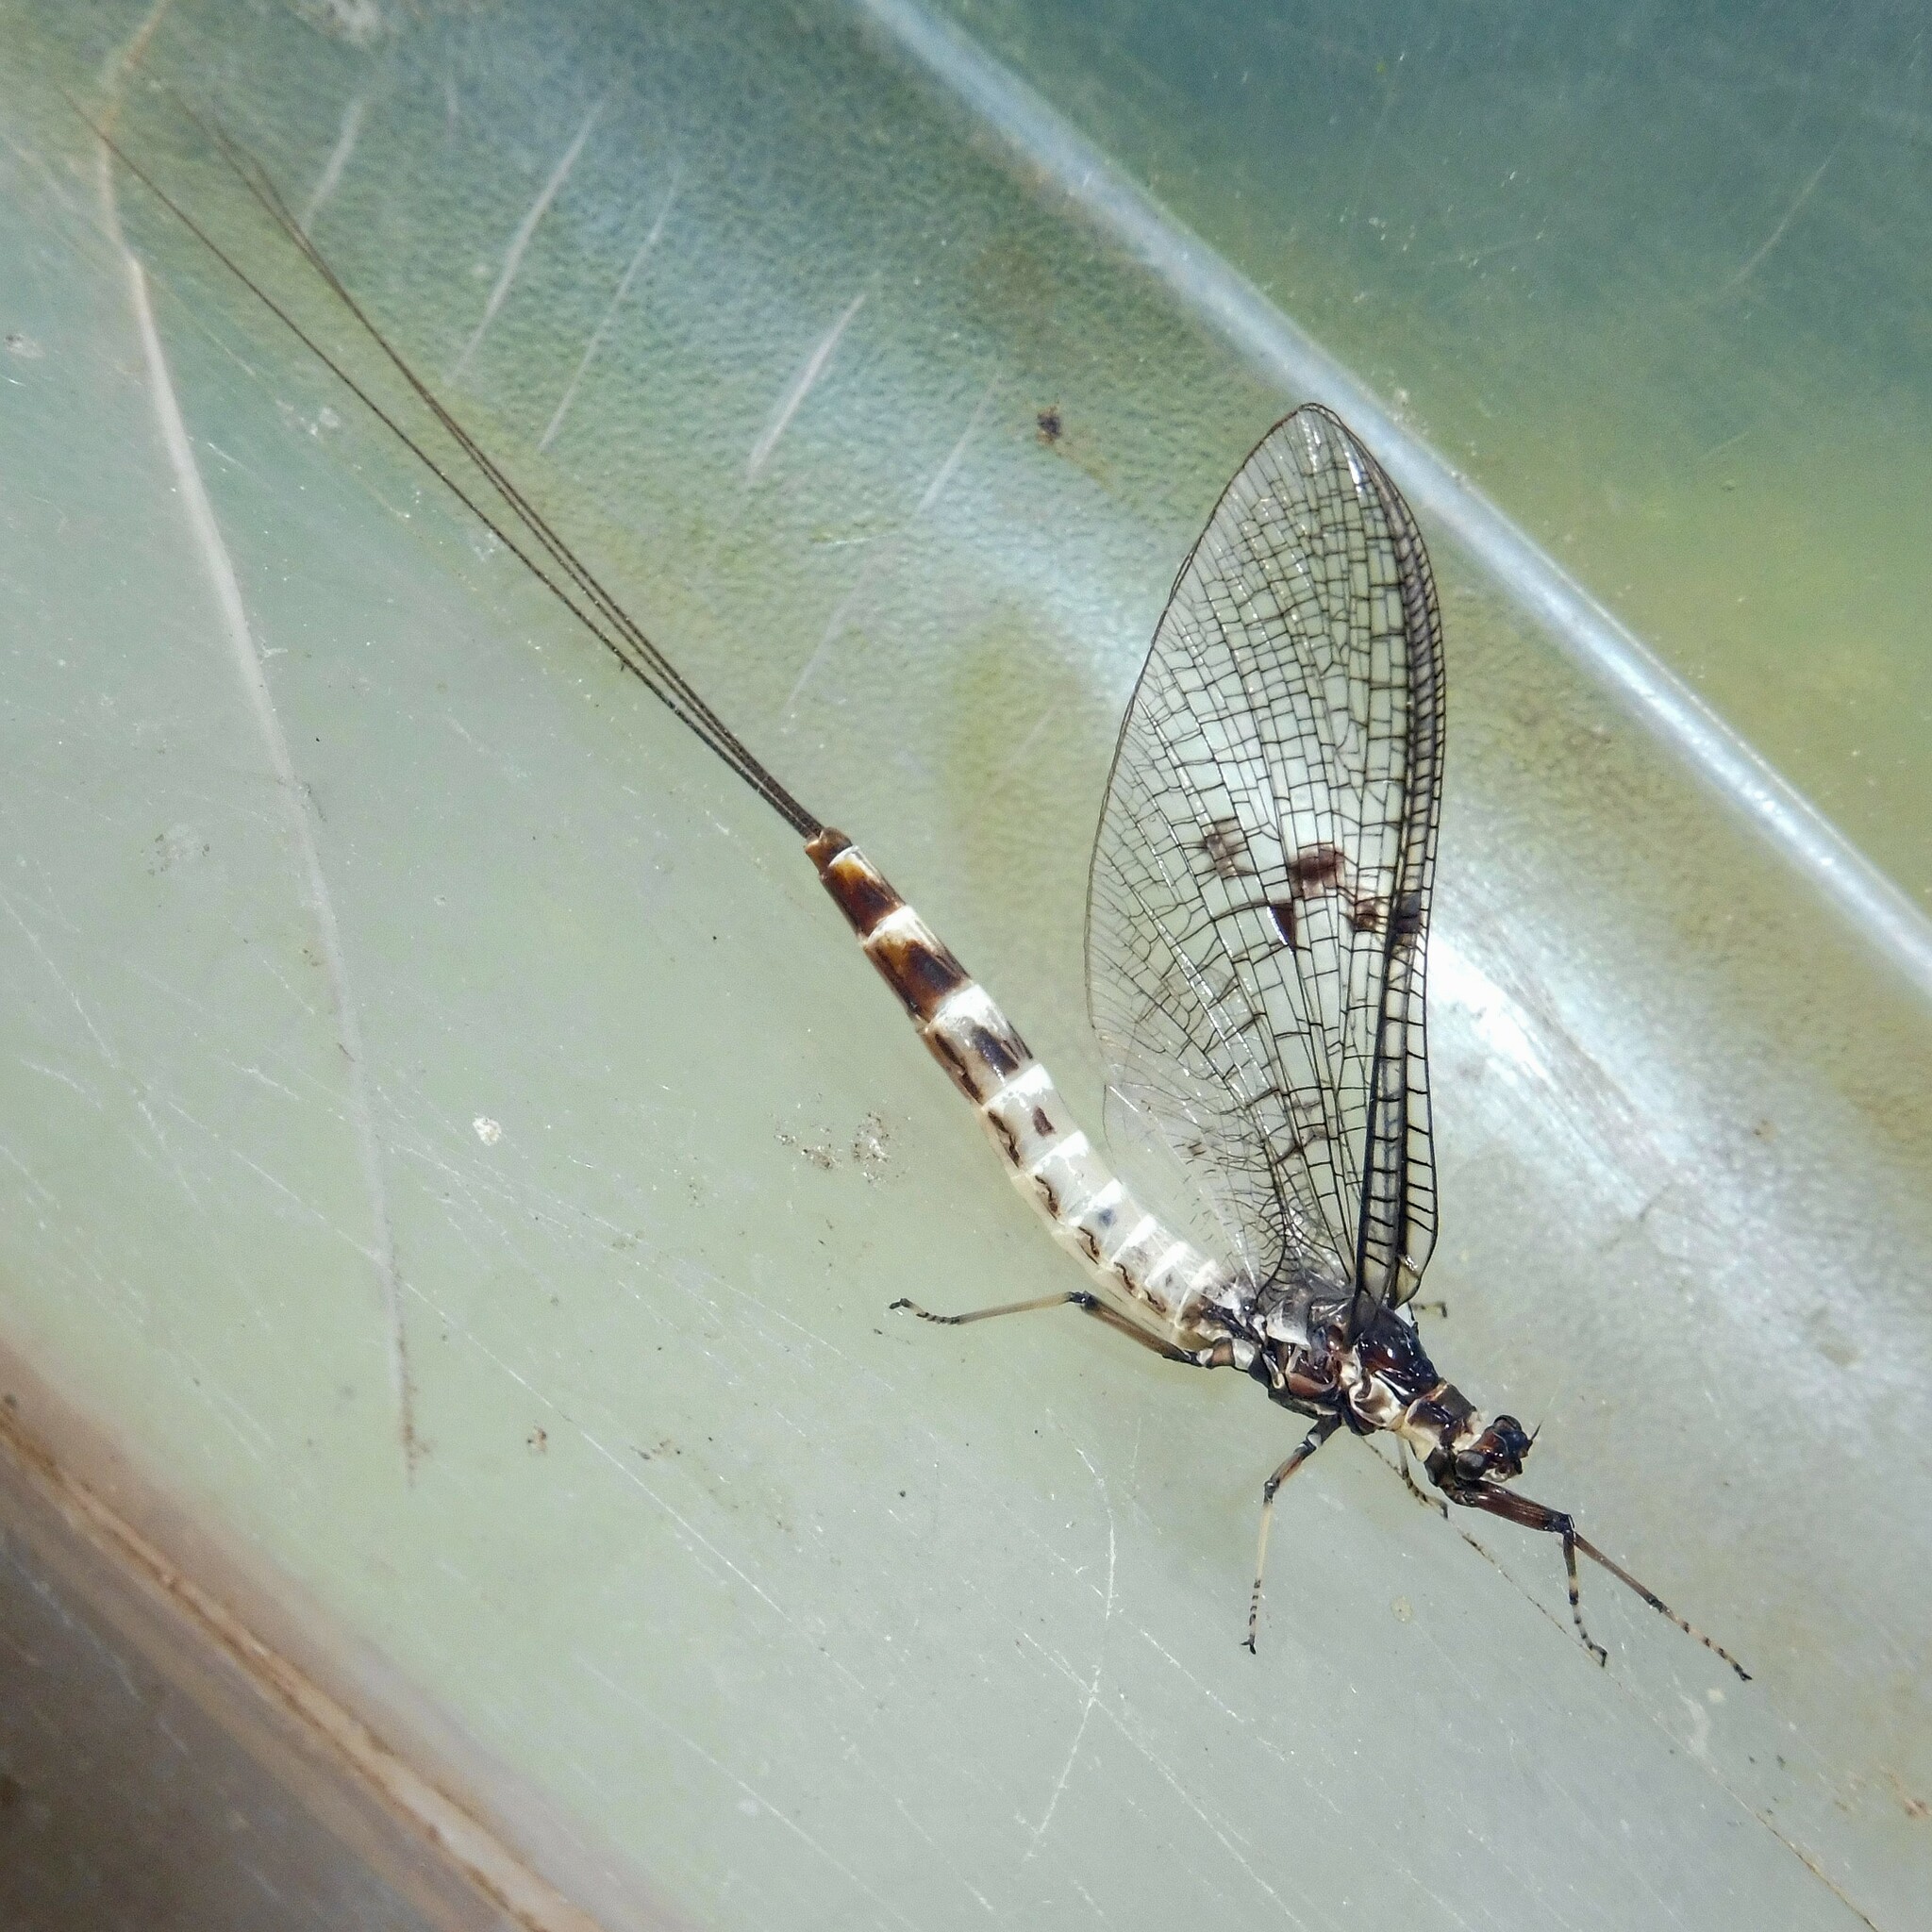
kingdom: Animalia
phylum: Arthropoda
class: Insecta
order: Ephemeroptera
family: Ephemeridae
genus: Ephemera
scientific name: Ephemera danica
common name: Green dun
